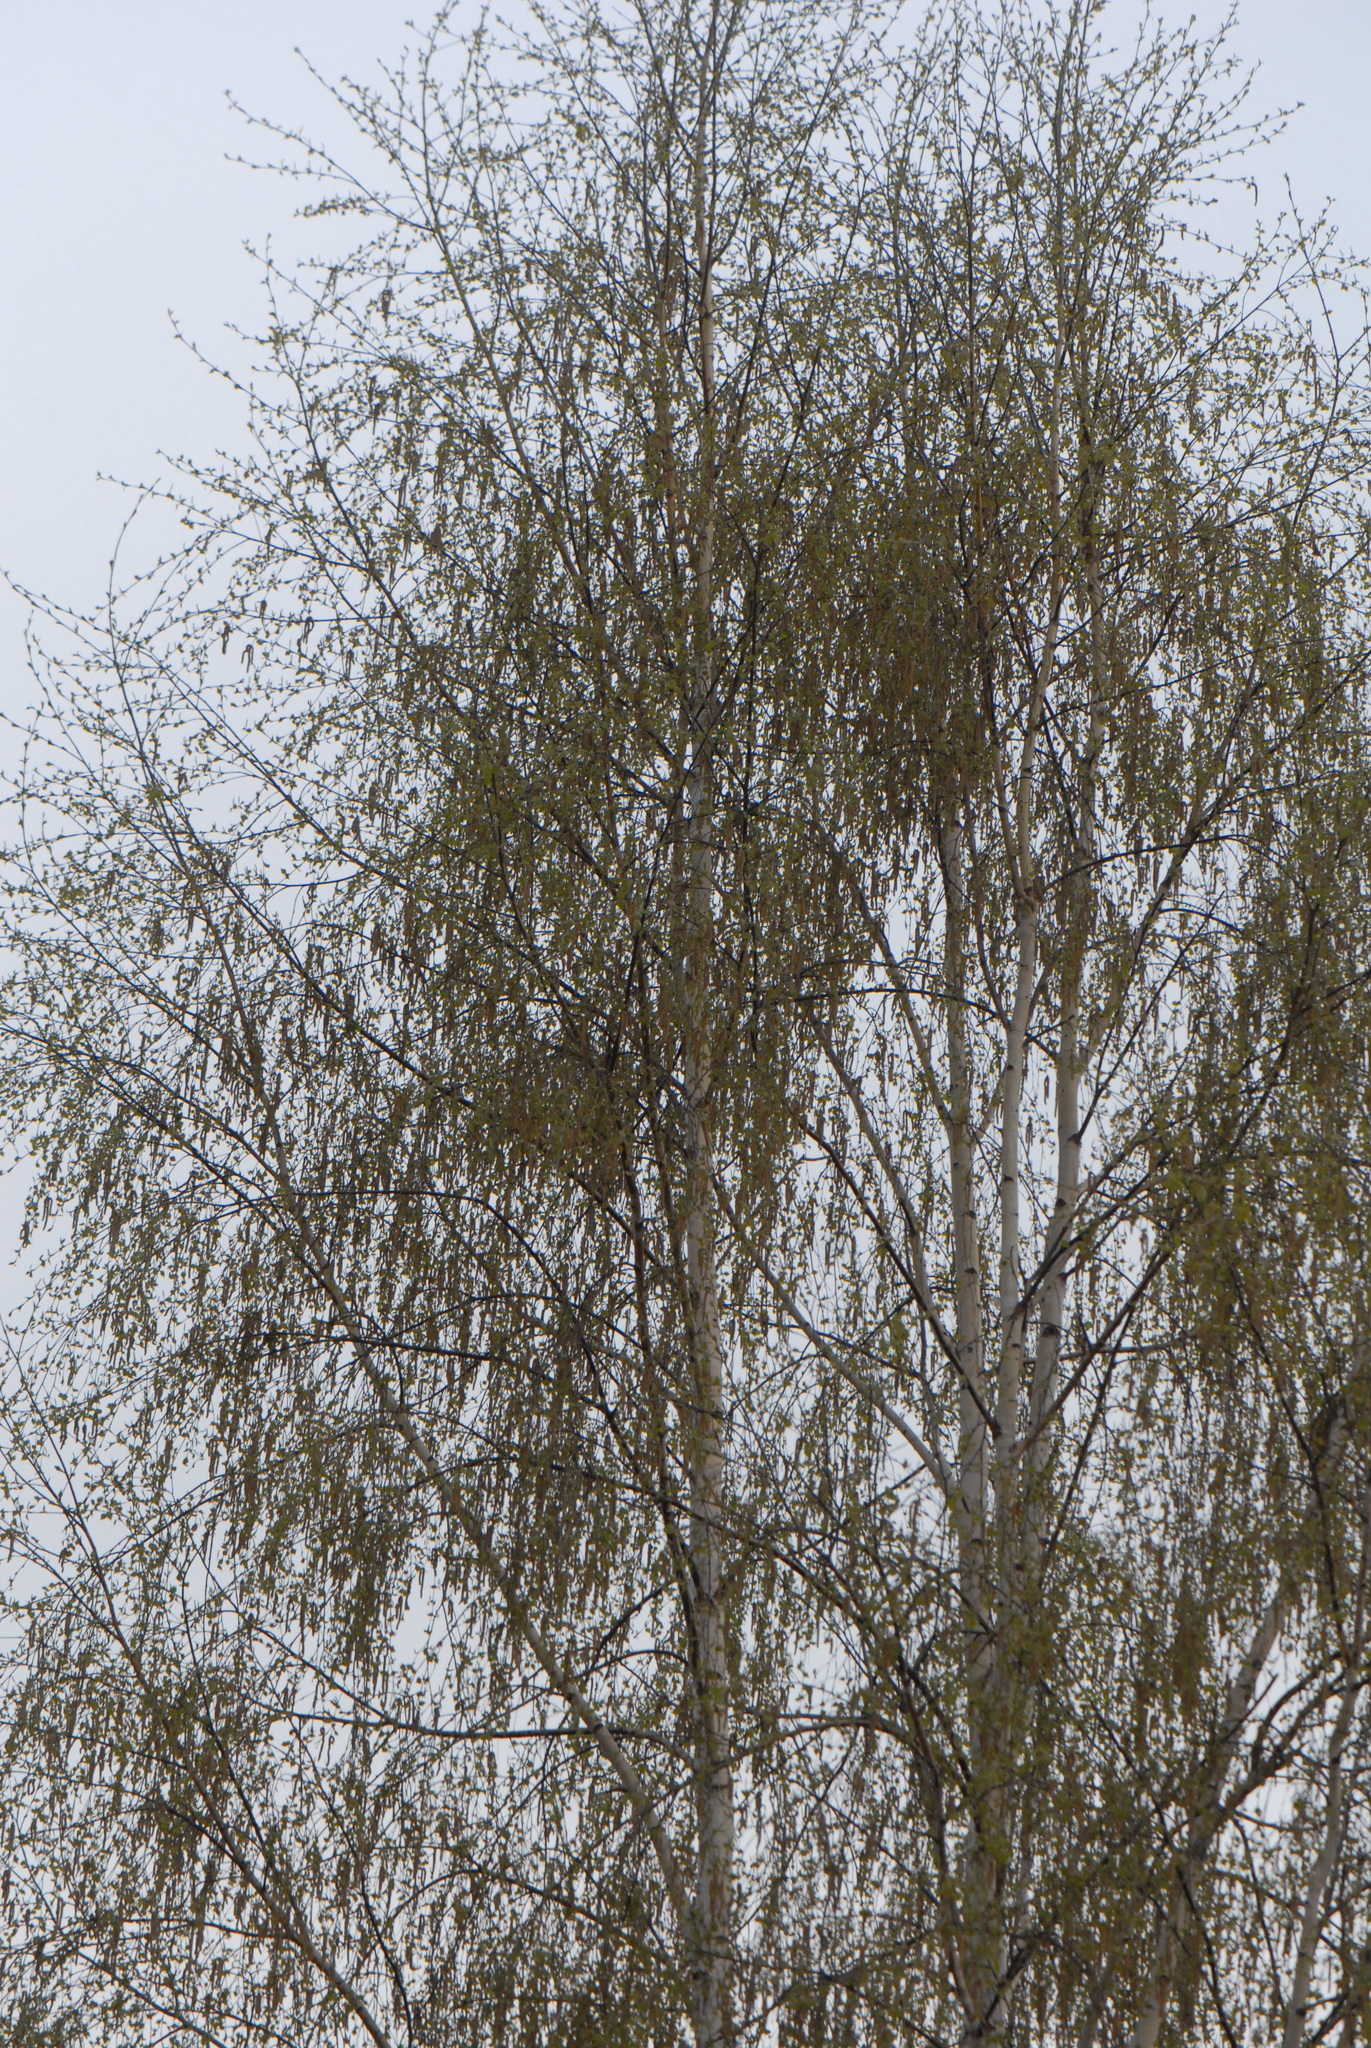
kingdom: Plantae
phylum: Tracheophyta
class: Magnoliopsida
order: Fagales
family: Betulaceae
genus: Betula
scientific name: Betula pendula
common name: Silver birch
